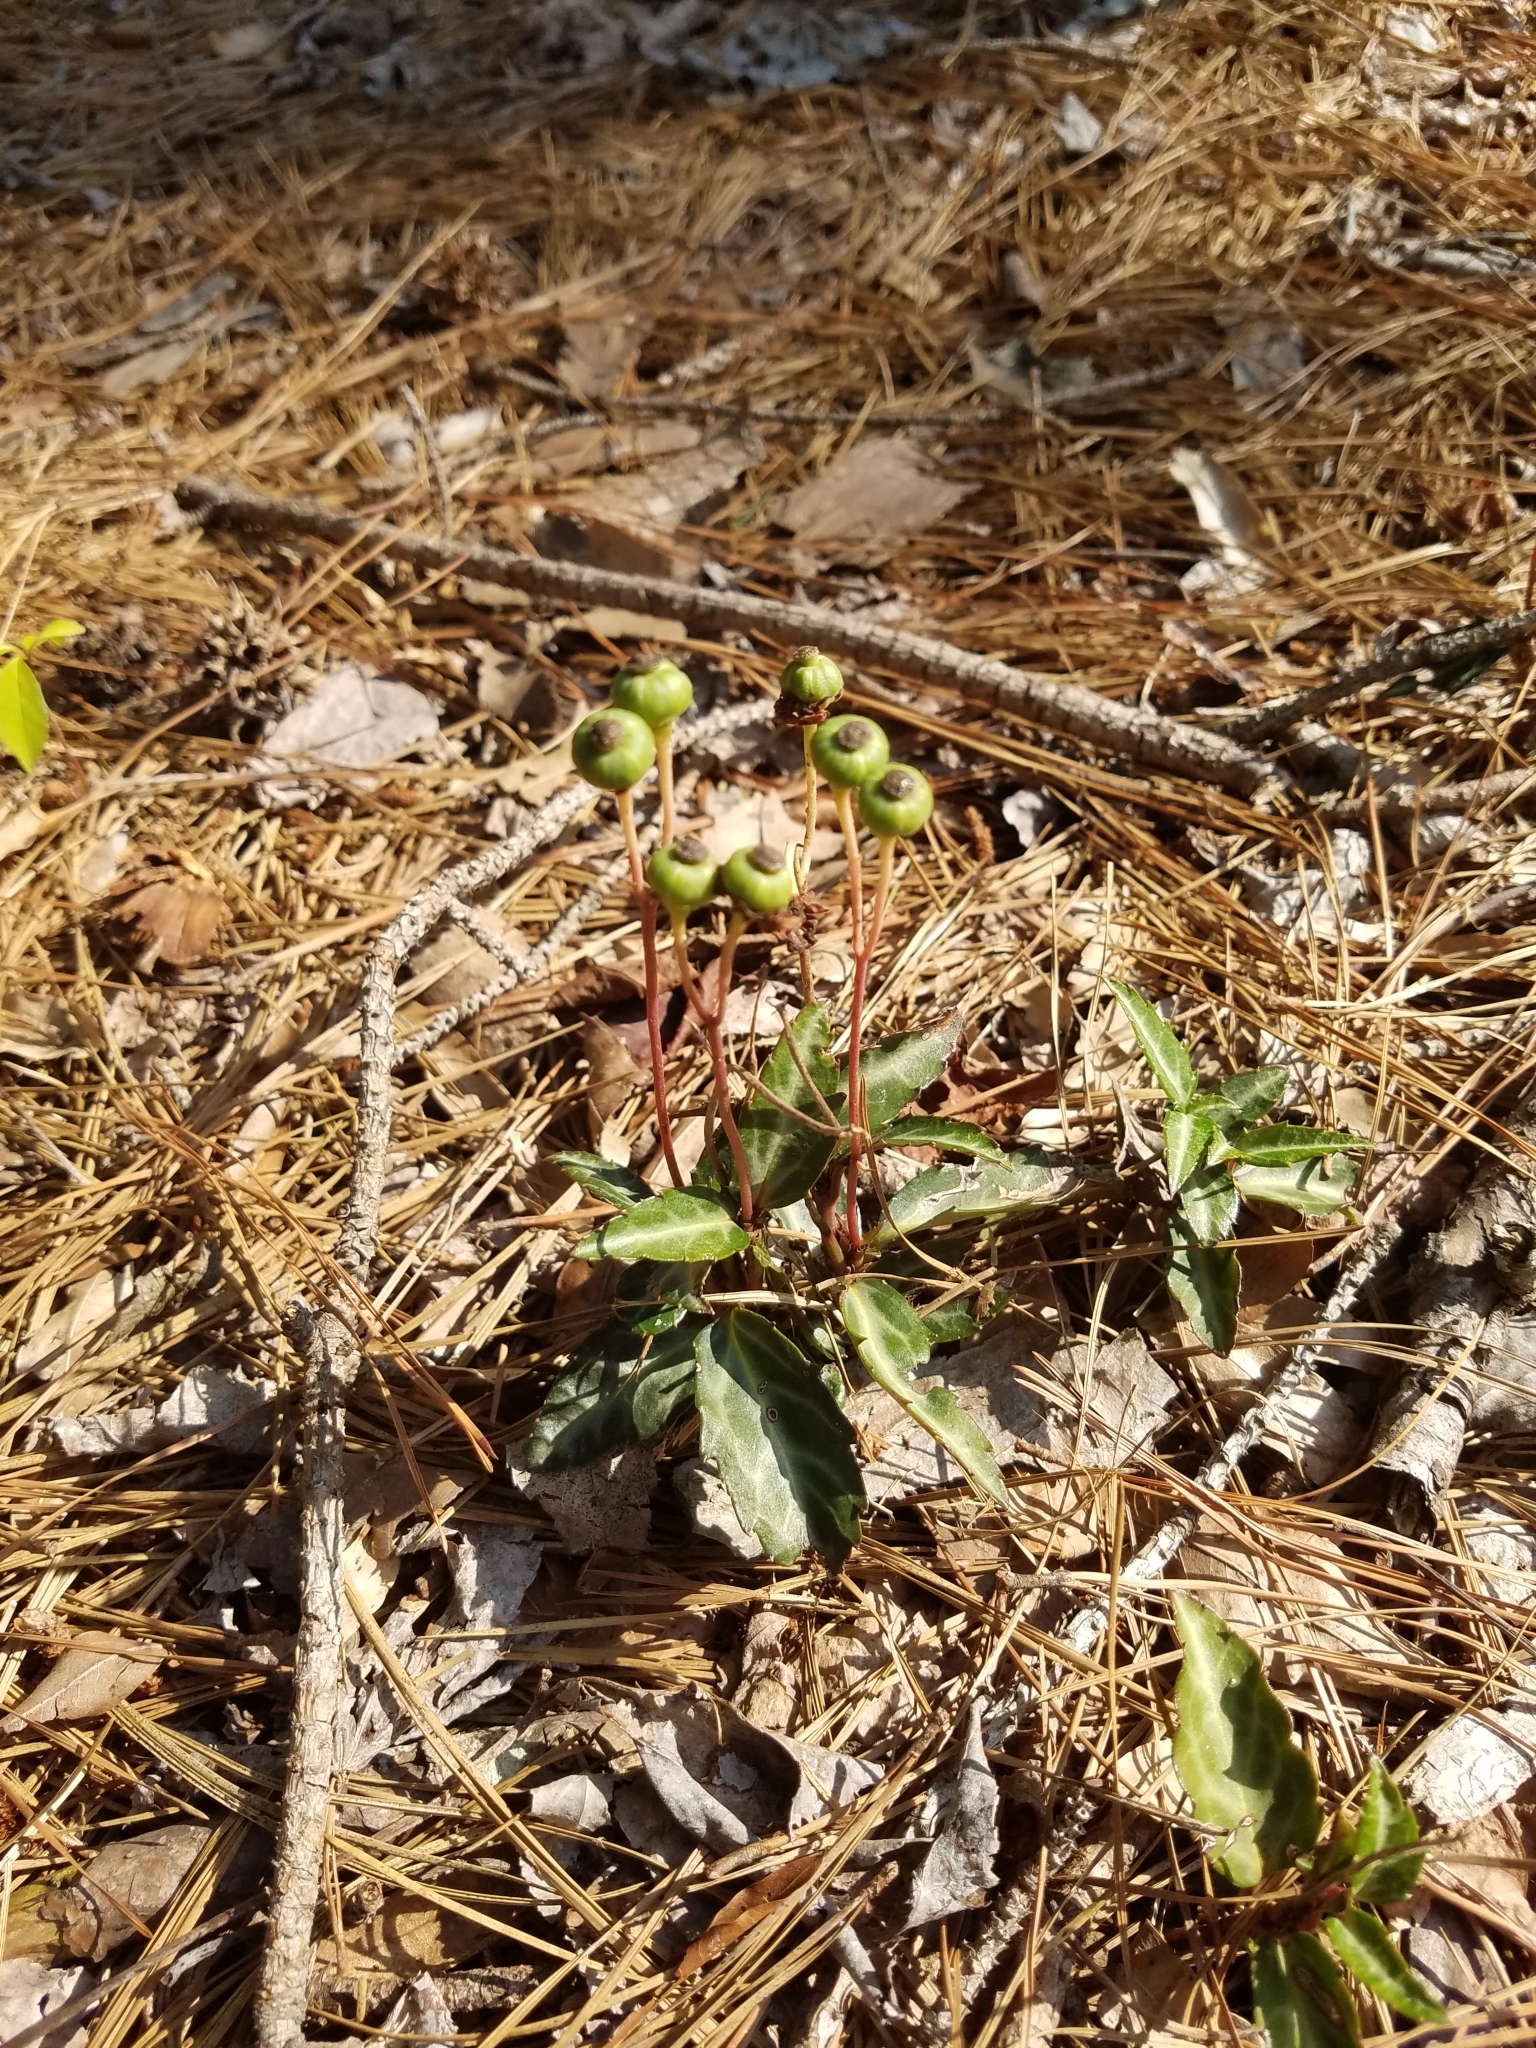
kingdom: Plantae
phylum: Tracheophyta
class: Magnoliopsida
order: Ericales
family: Ericaceae
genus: Chimaphila
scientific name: Chimaphila maculata
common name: Spotted pipsissewa
